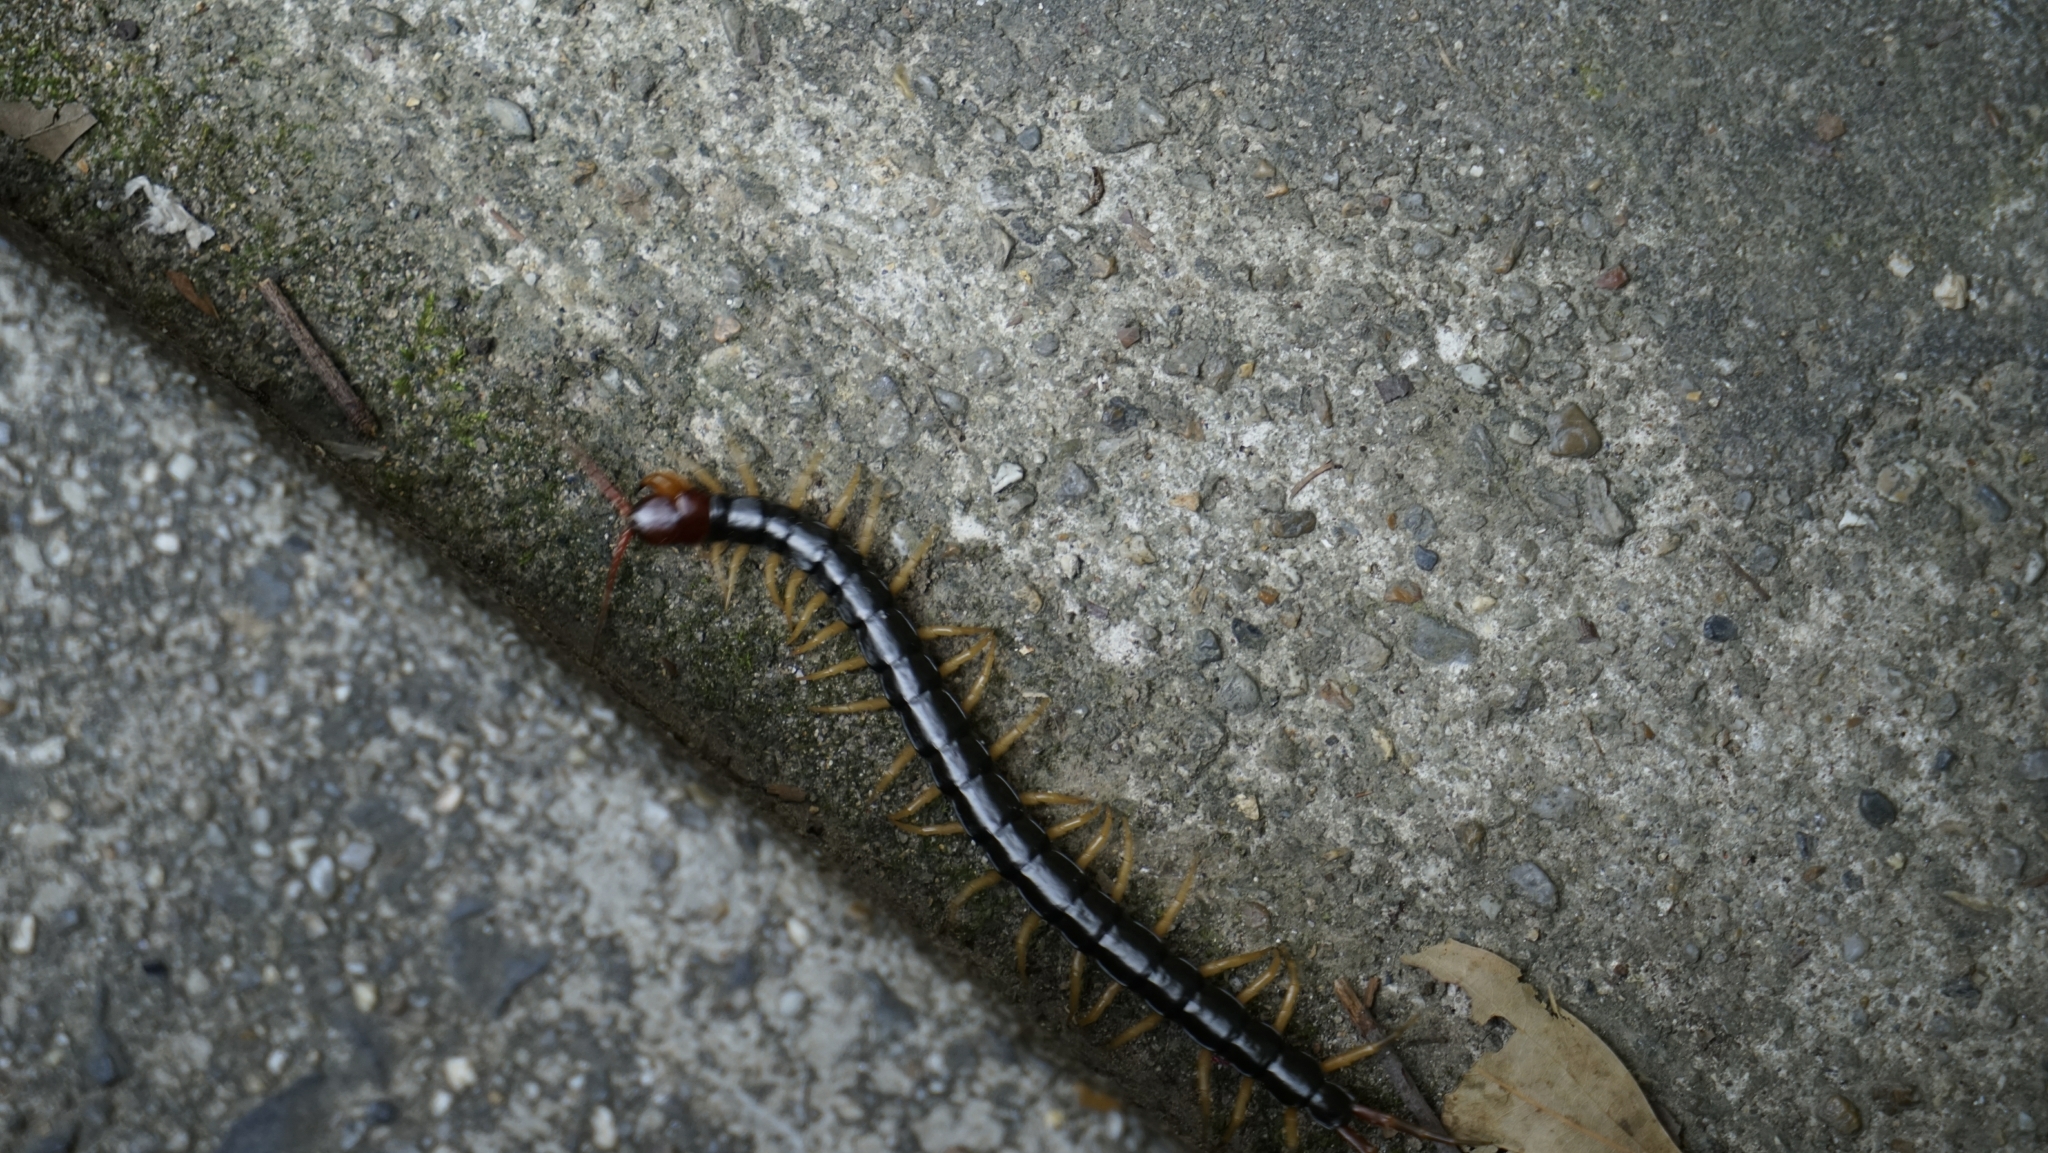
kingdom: Animalia
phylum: Arthropoda
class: Chilopoda
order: Scolopendromorpha
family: Scolopendridae
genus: Scolopendra
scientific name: Scolopendra mutilans
